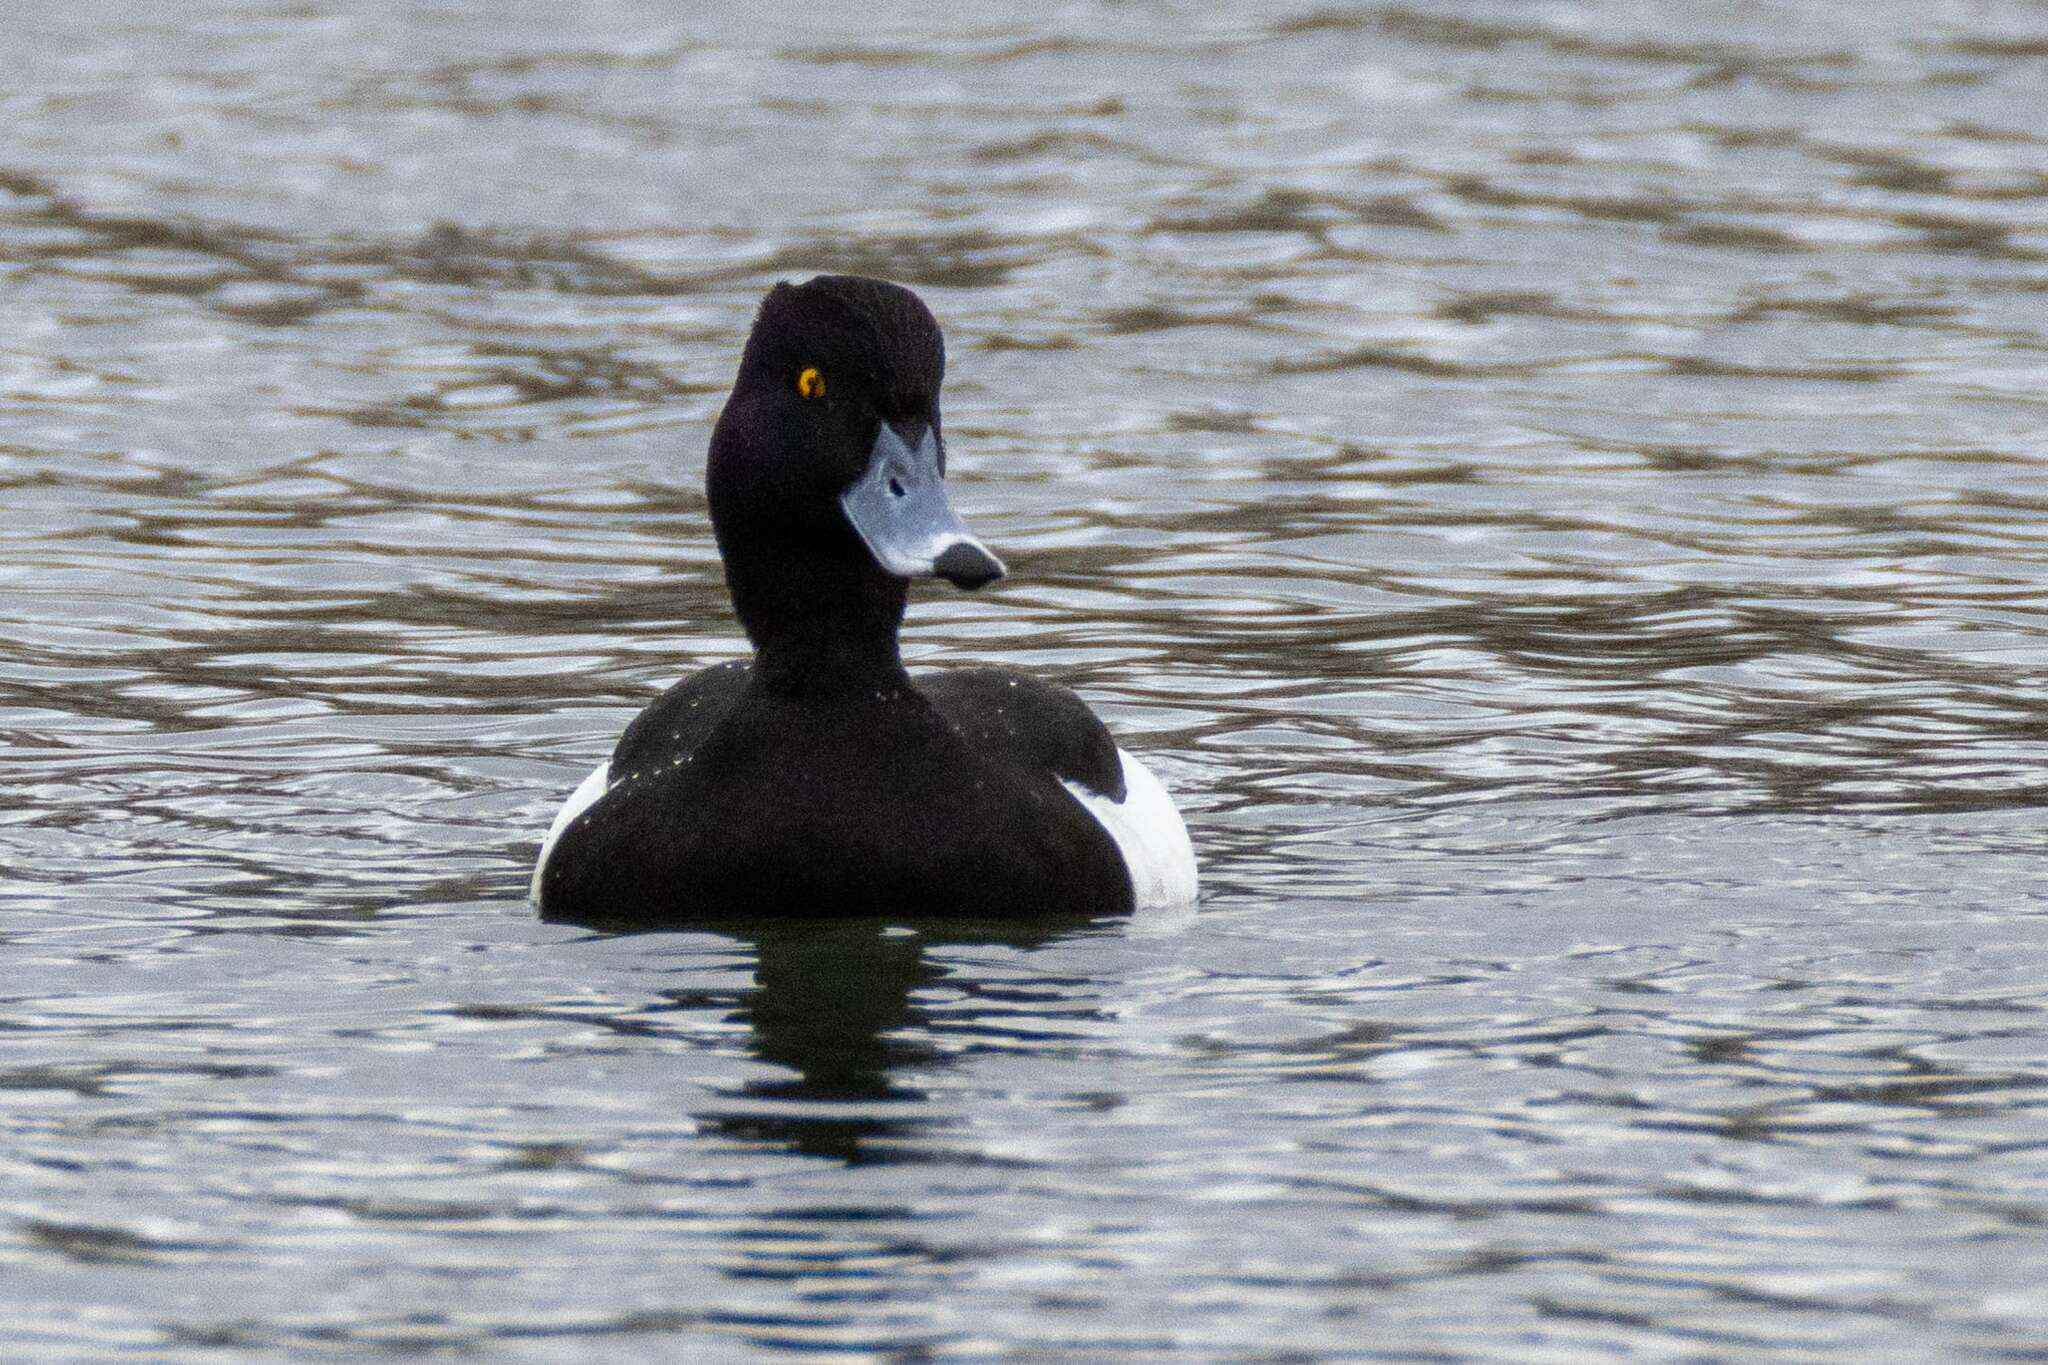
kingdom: Animalia
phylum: Chordata
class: Aves
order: Anseriformes
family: Anatidae
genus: Aythya
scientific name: Aythya fuligula
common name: Tufted duck
